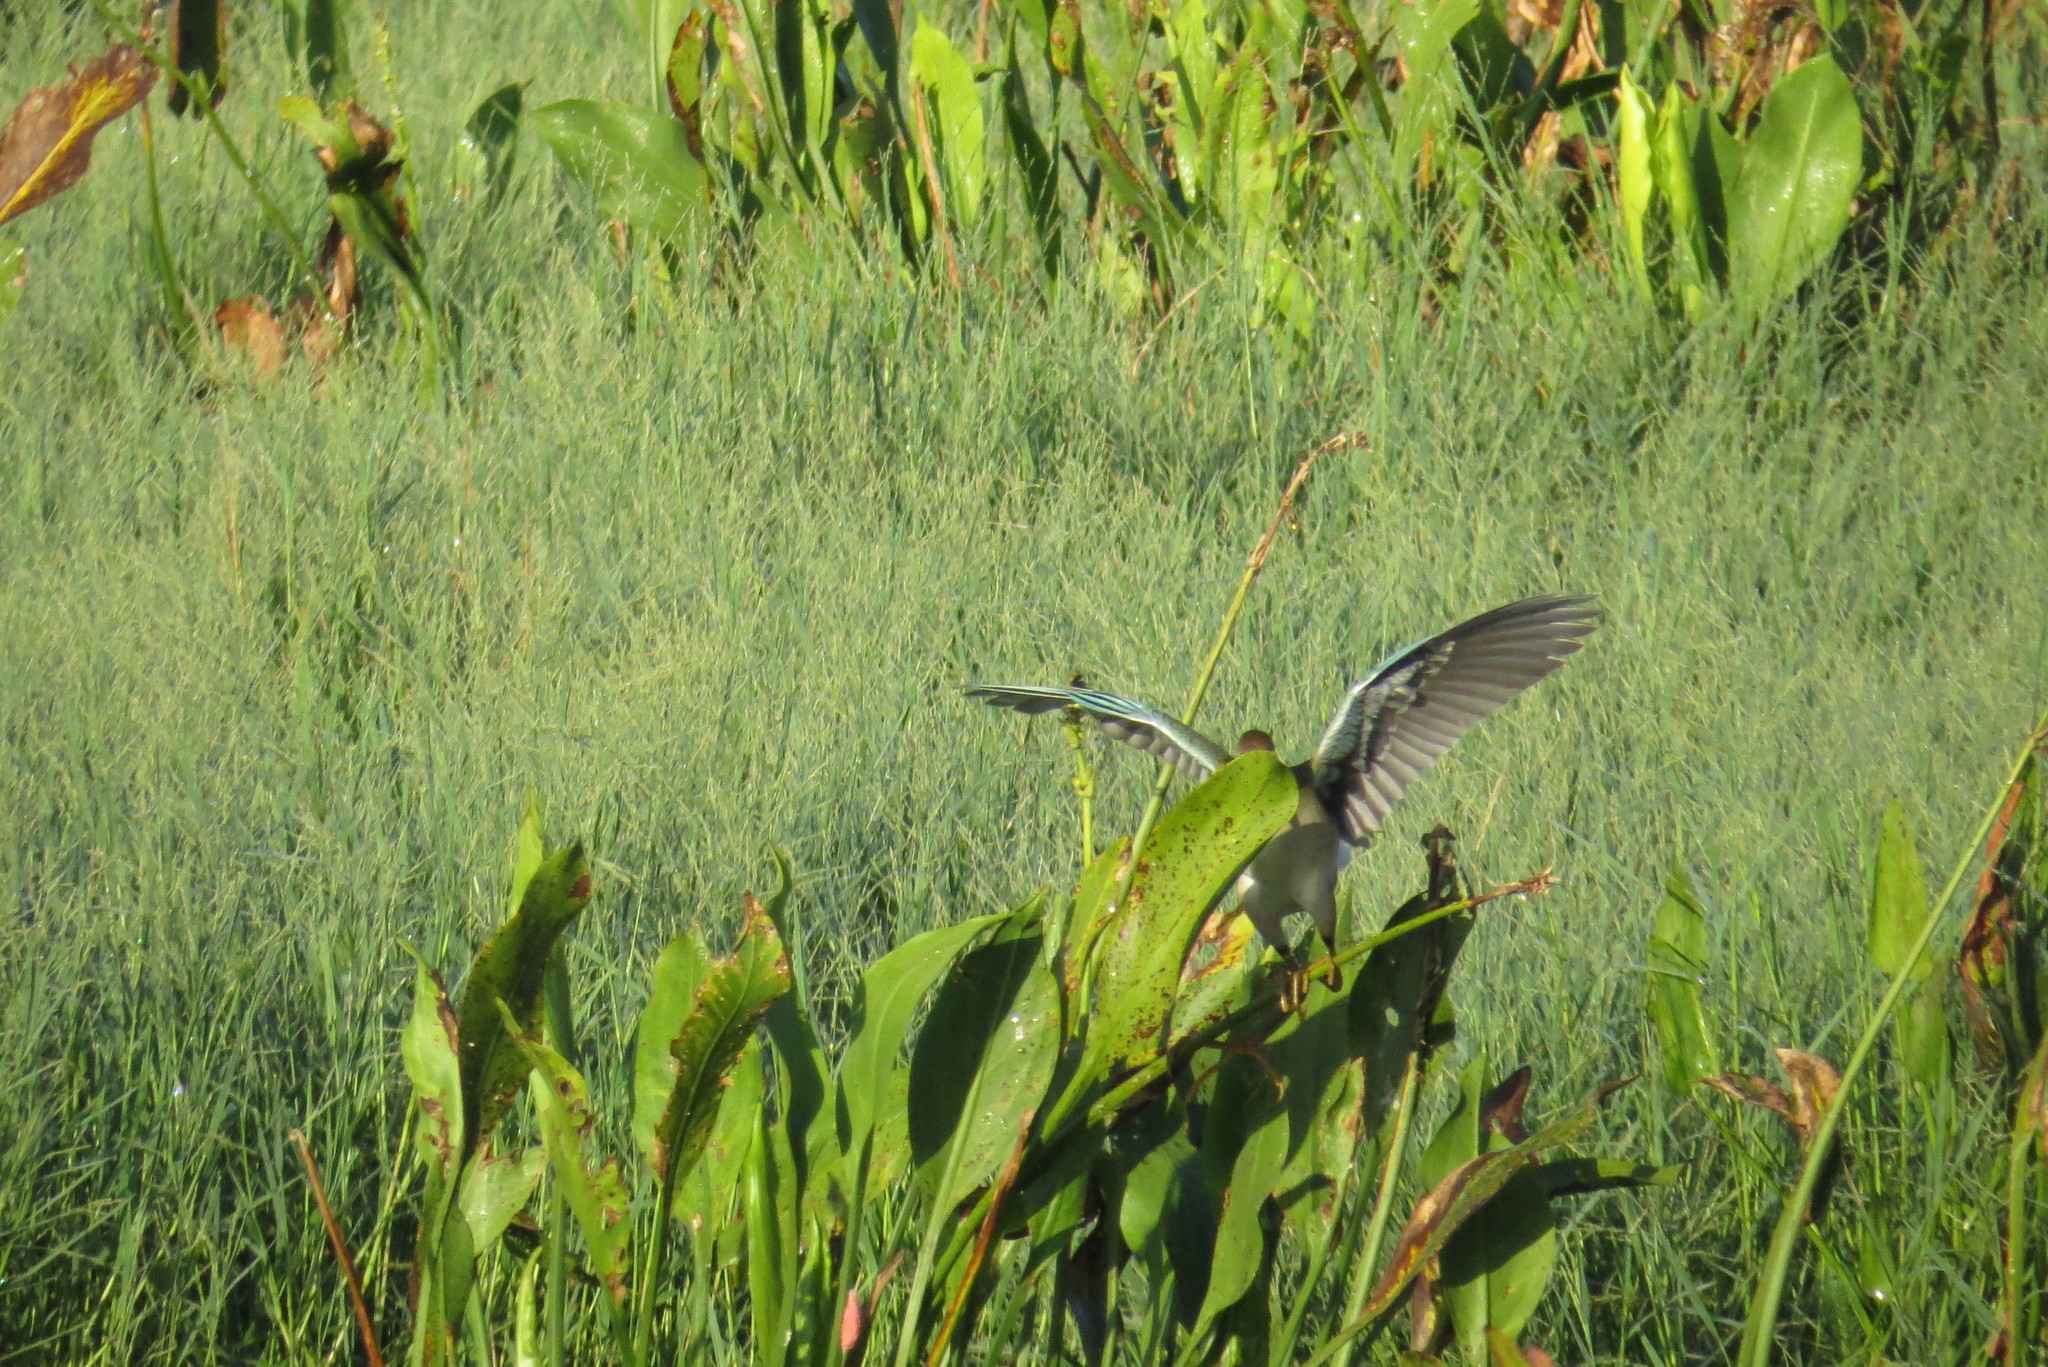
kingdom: Animalia
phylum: Chordata
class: Aves
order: Gruiformes
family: Rallidae
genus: Porphyrio
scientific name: Porphyrio martinica
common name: Purple gallinule
